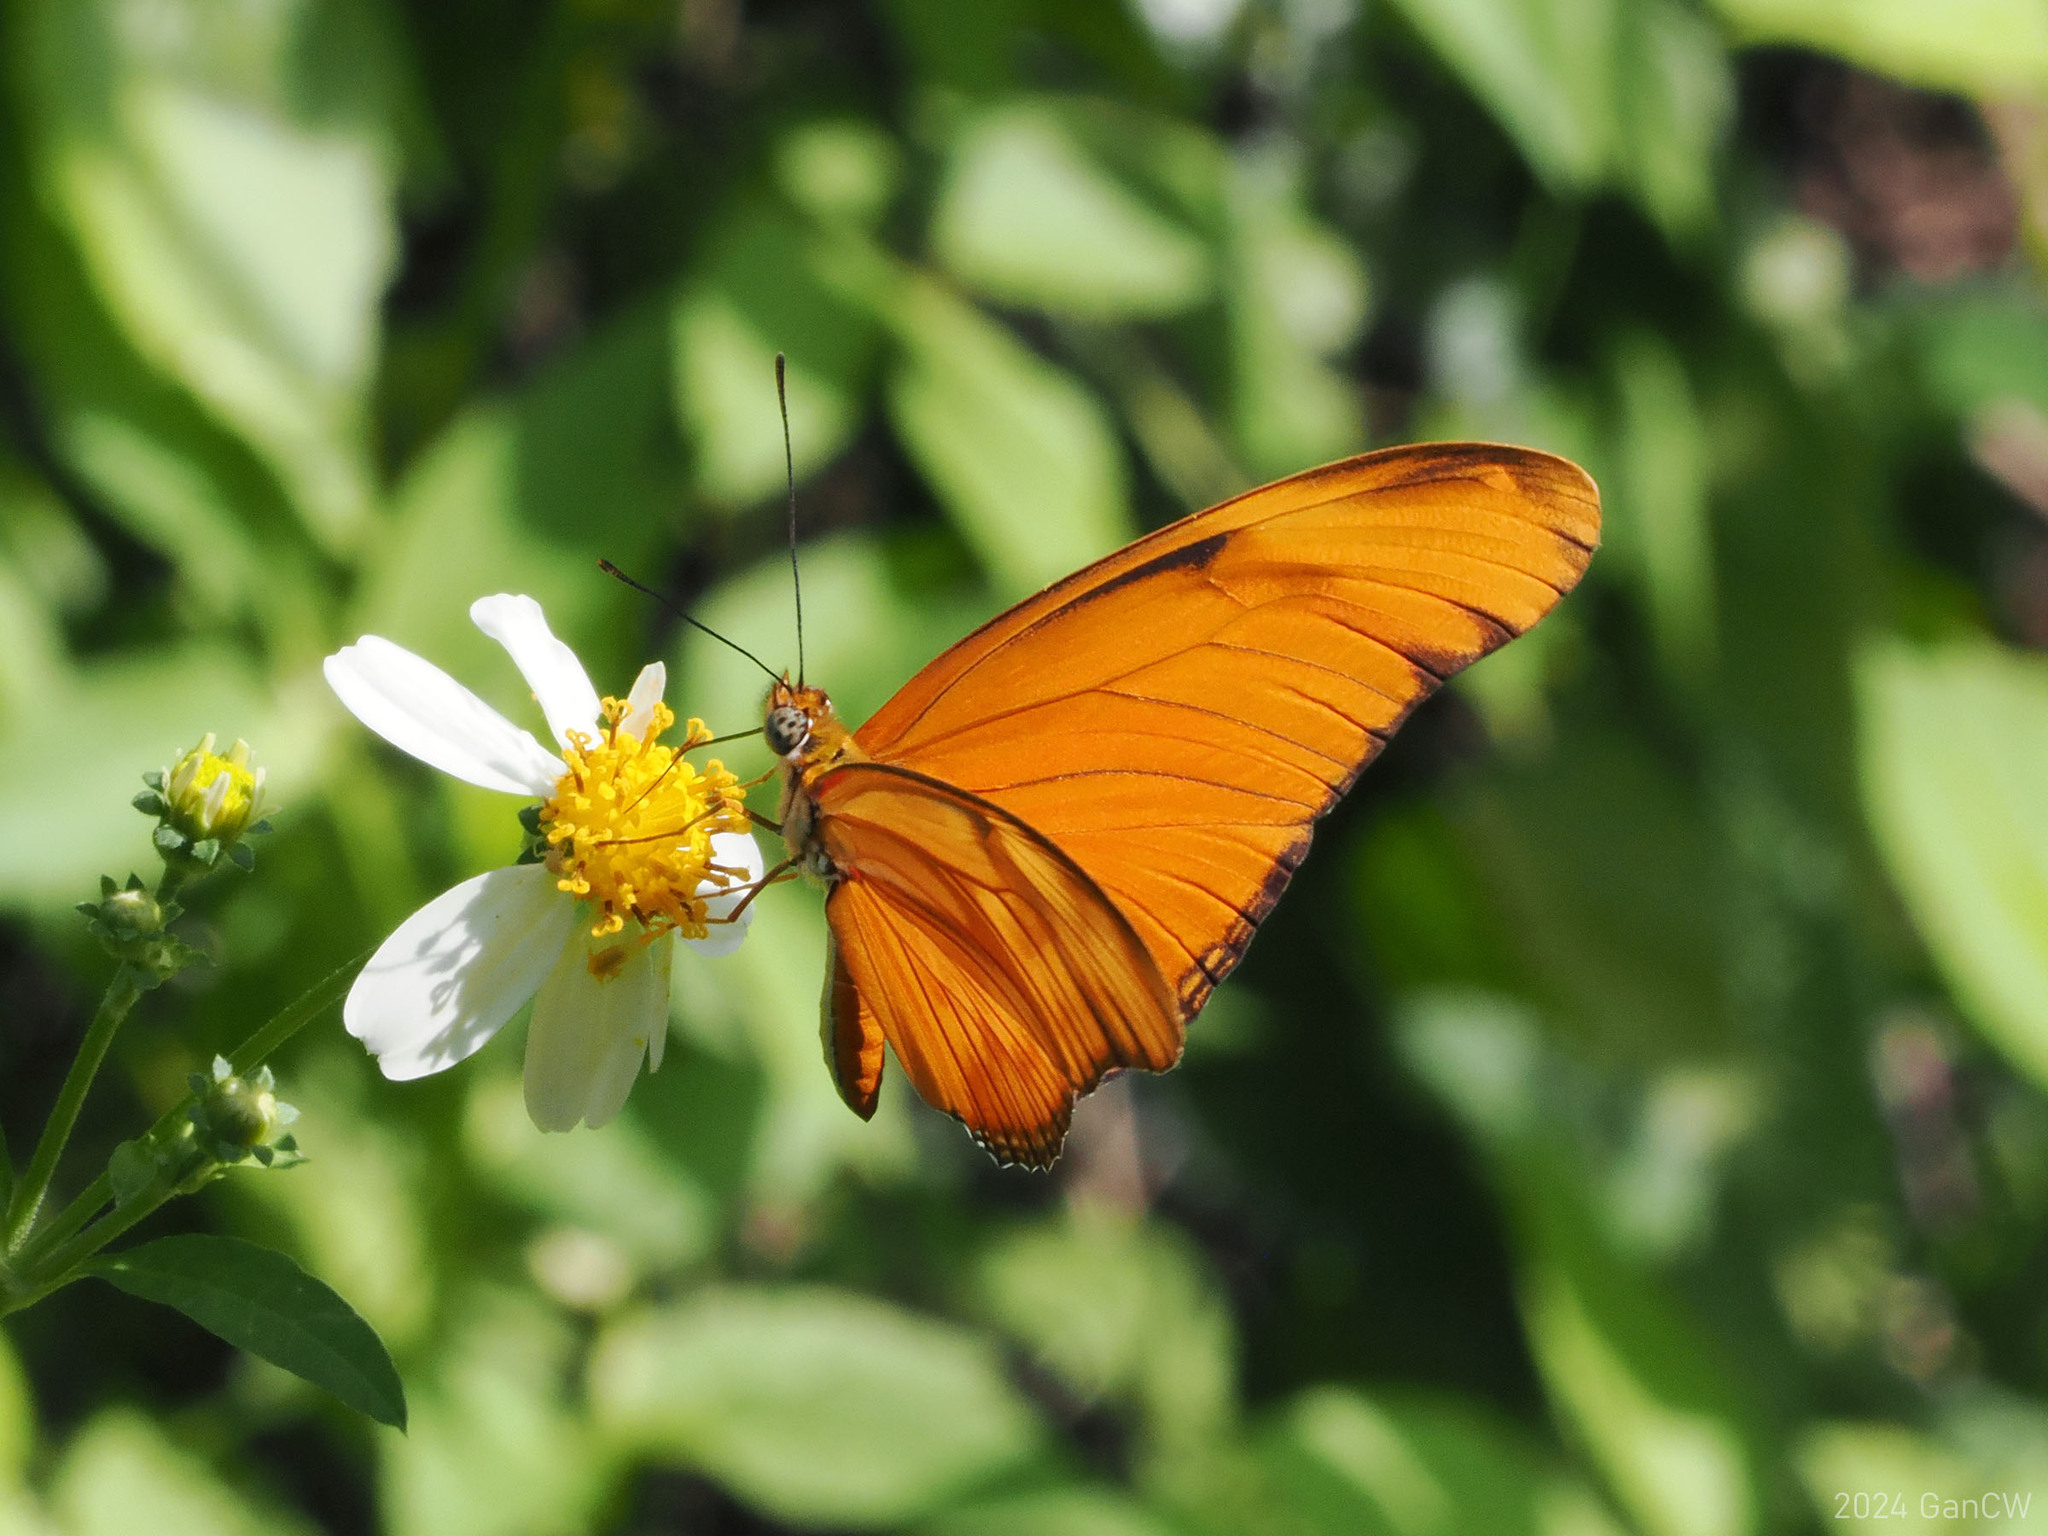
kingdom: Animalia
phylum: Arthropoda
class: Insecta
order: Lepidoptera
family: Nymphalidae
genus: Dryas
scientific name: Dryas iulia
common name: Flambeau
